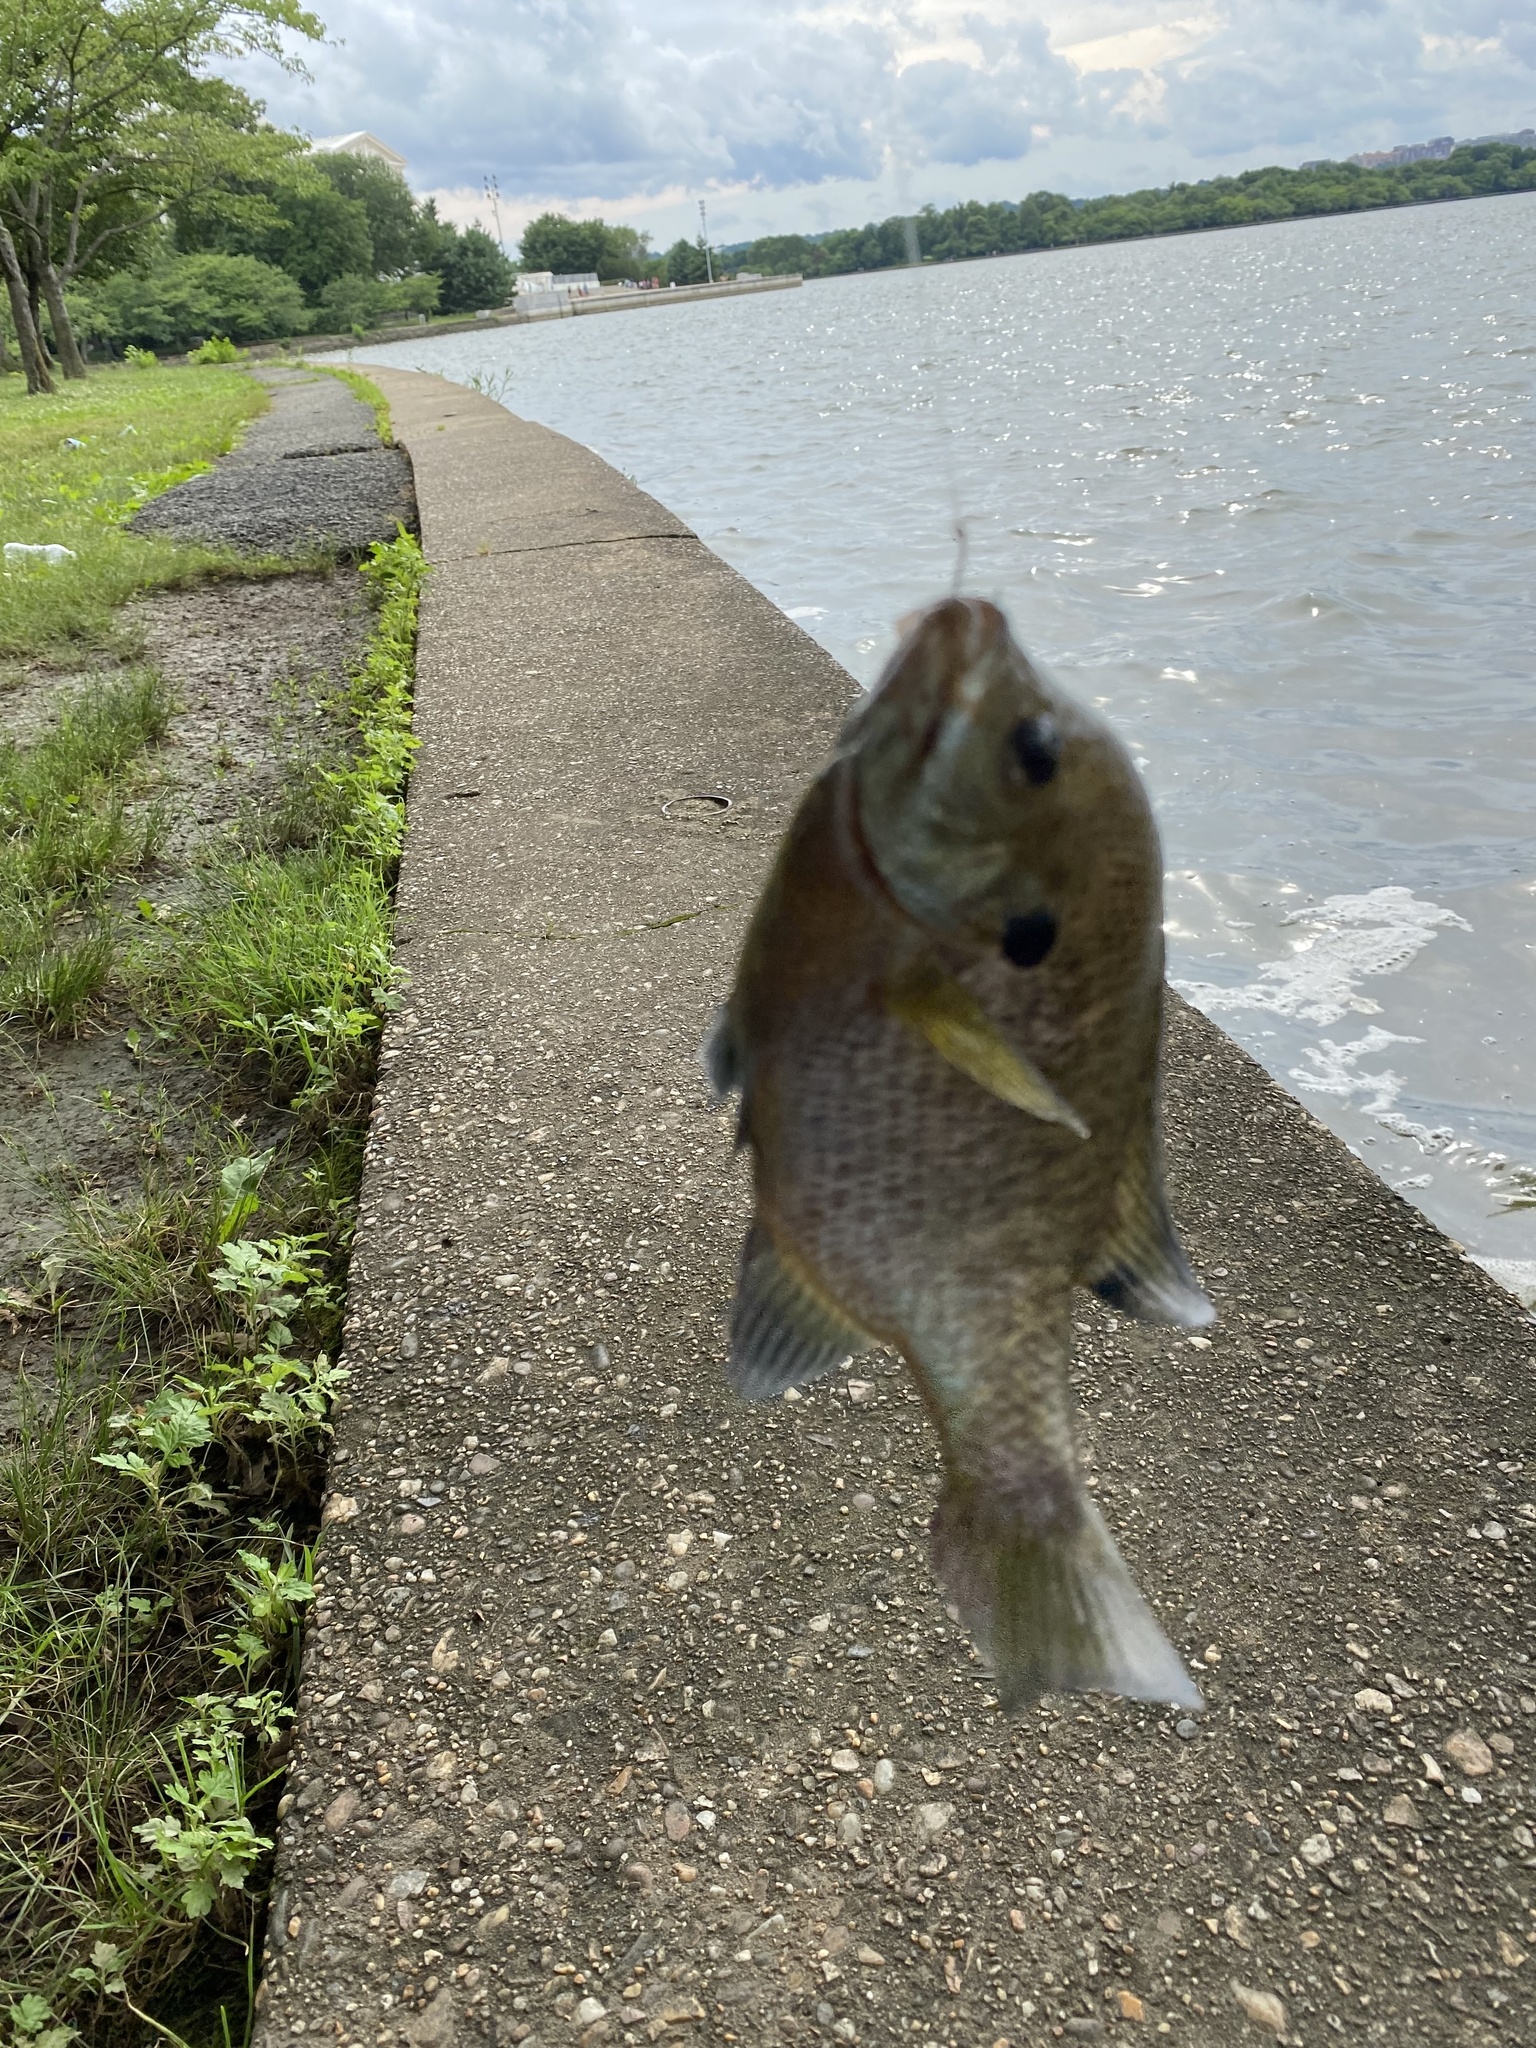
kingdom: Animalia
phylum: Chordata
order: Perciformes
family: Centrarchidae
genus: Lepomis
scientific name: Lepomis macrochirus
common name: Bluegill
